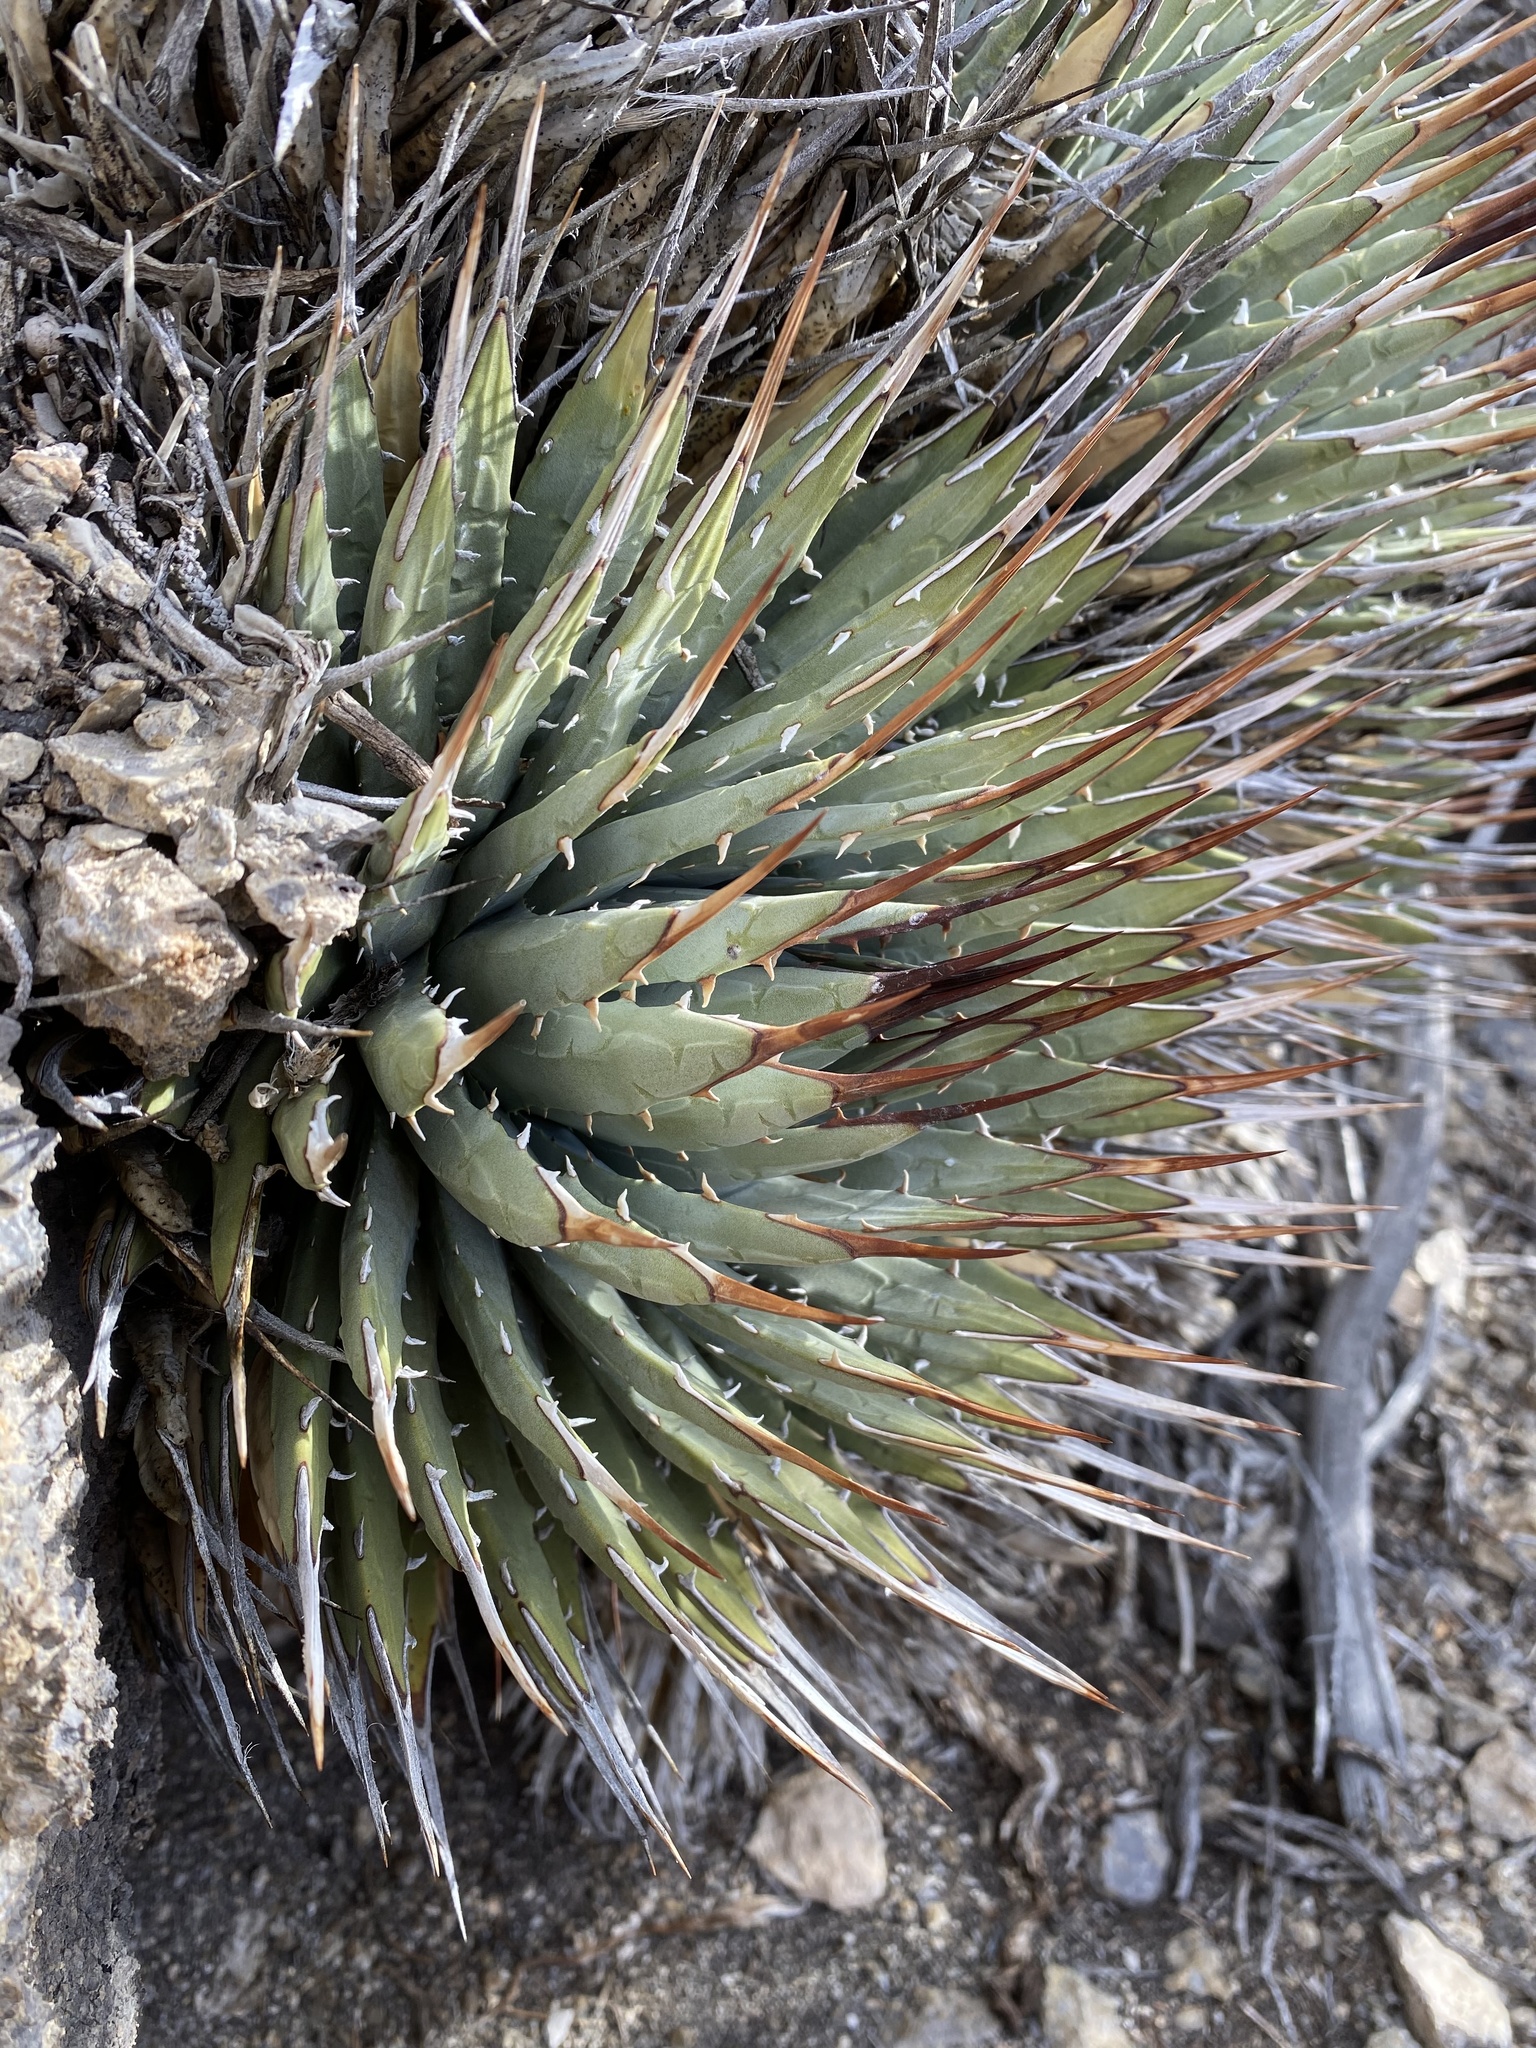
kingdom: Plantae
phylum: Tracheophyta
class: Liliopsida
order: Asparagales
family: Asparagaceae
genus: Agave
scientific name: Agave utahensis
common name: Utah agave
